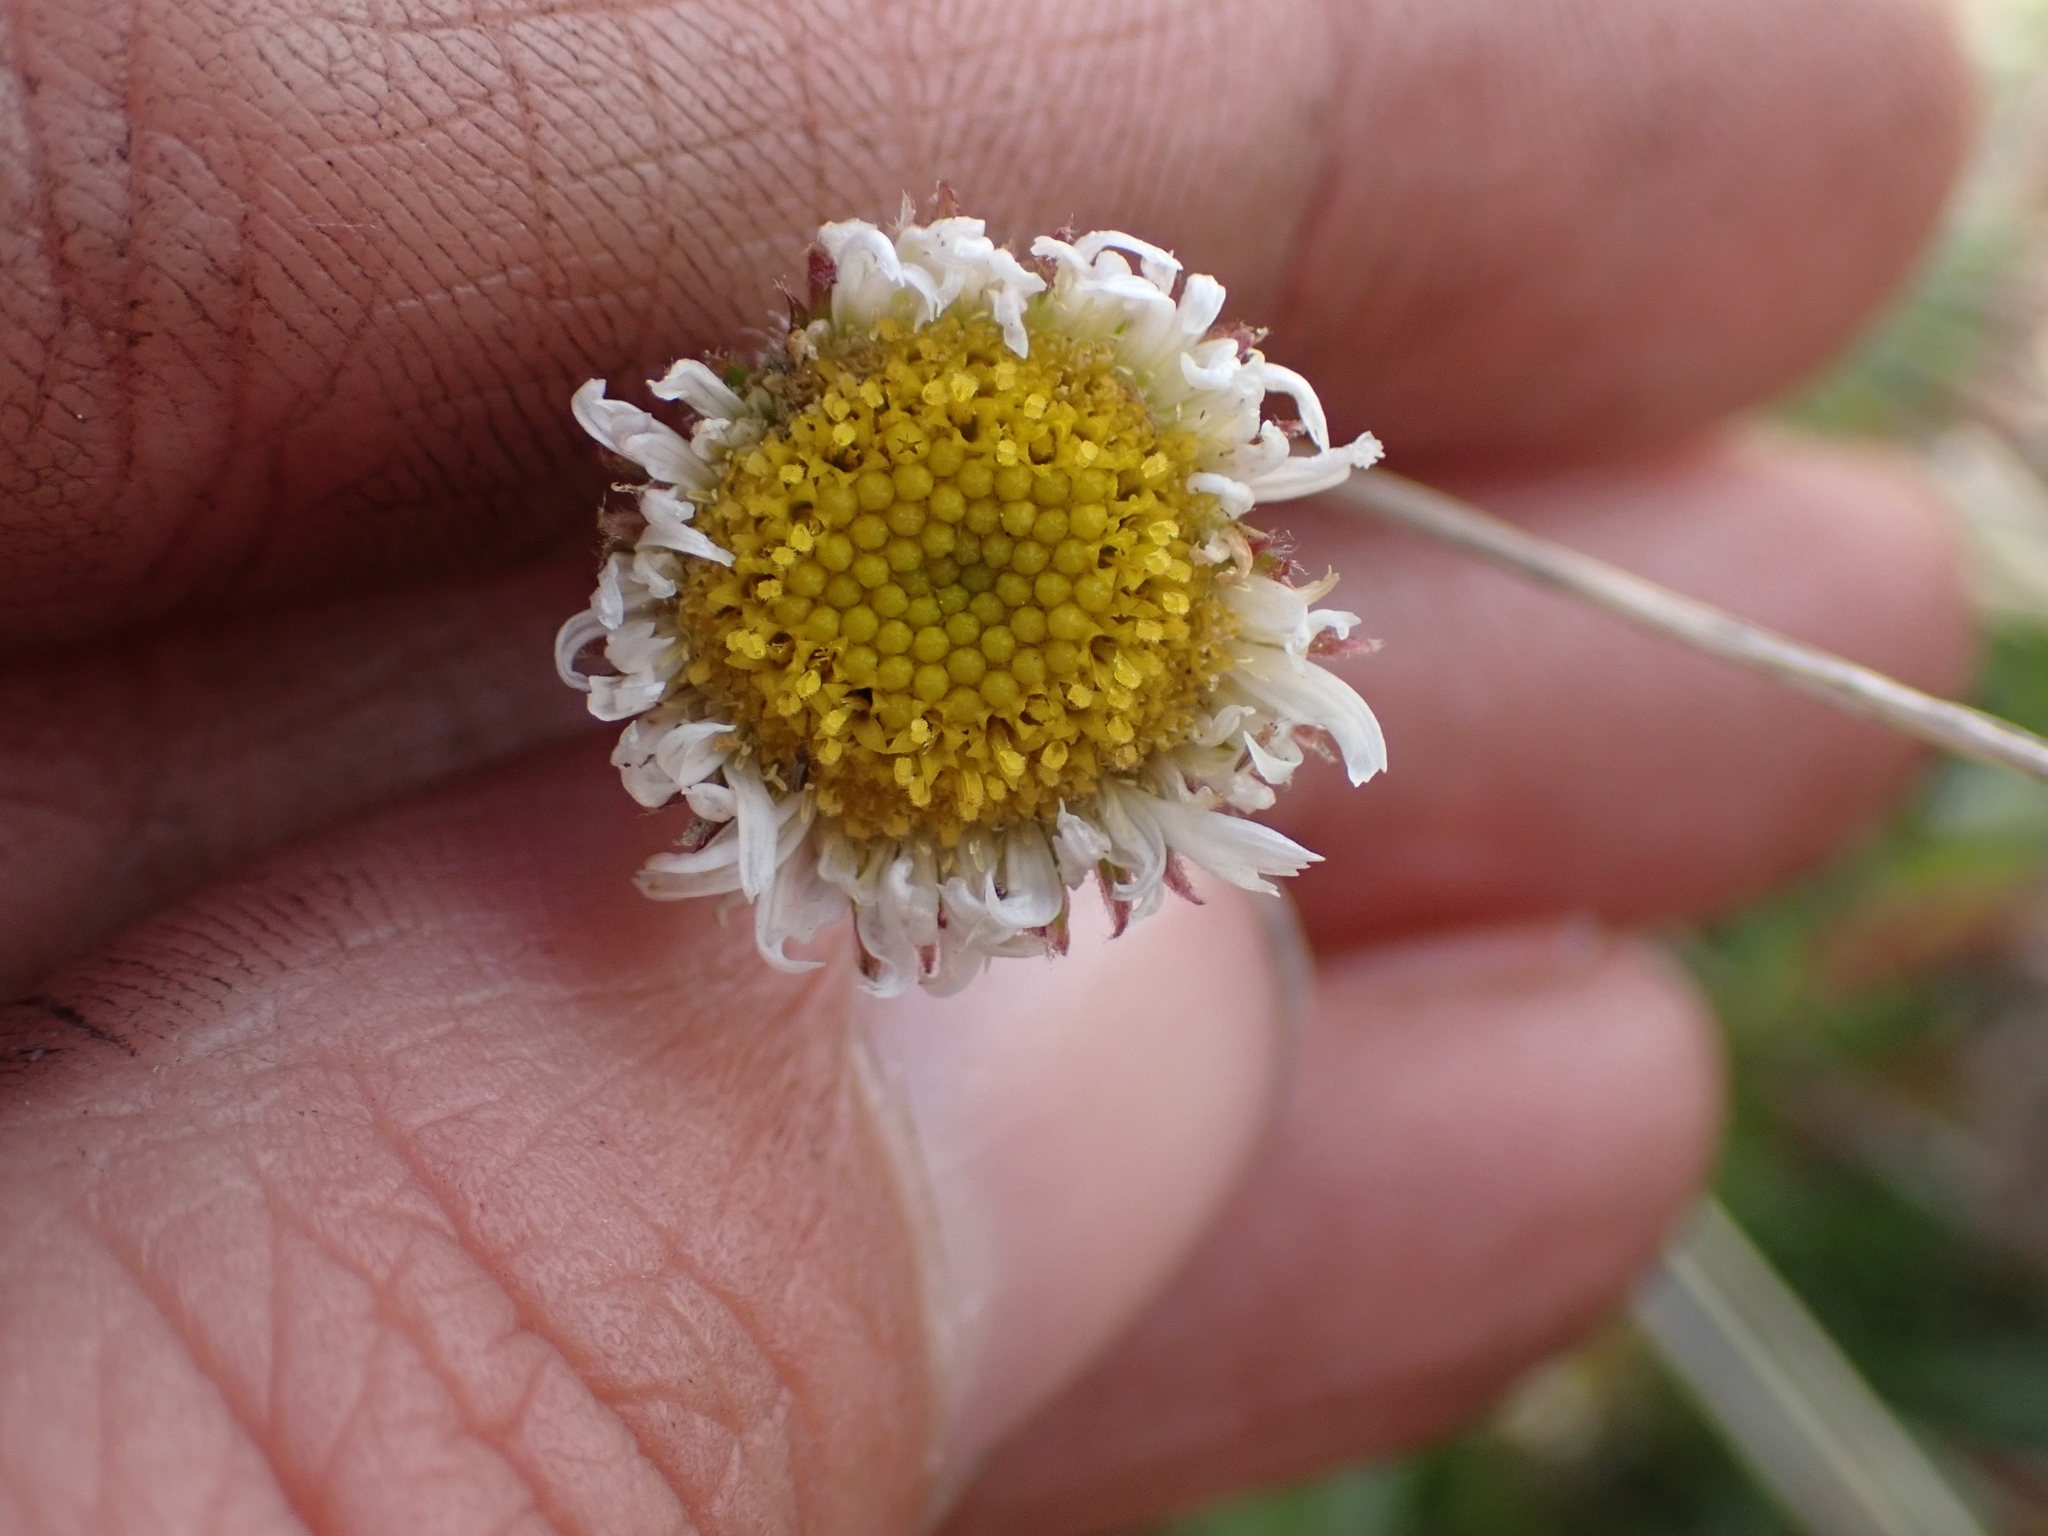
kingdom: Plantae
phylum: Tracheophyta
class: Magnoliopsida
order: Asterales
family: Asteraceae
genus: Erigeron
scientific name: Erigeron compositus
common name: Dwarf mountain fleabane
